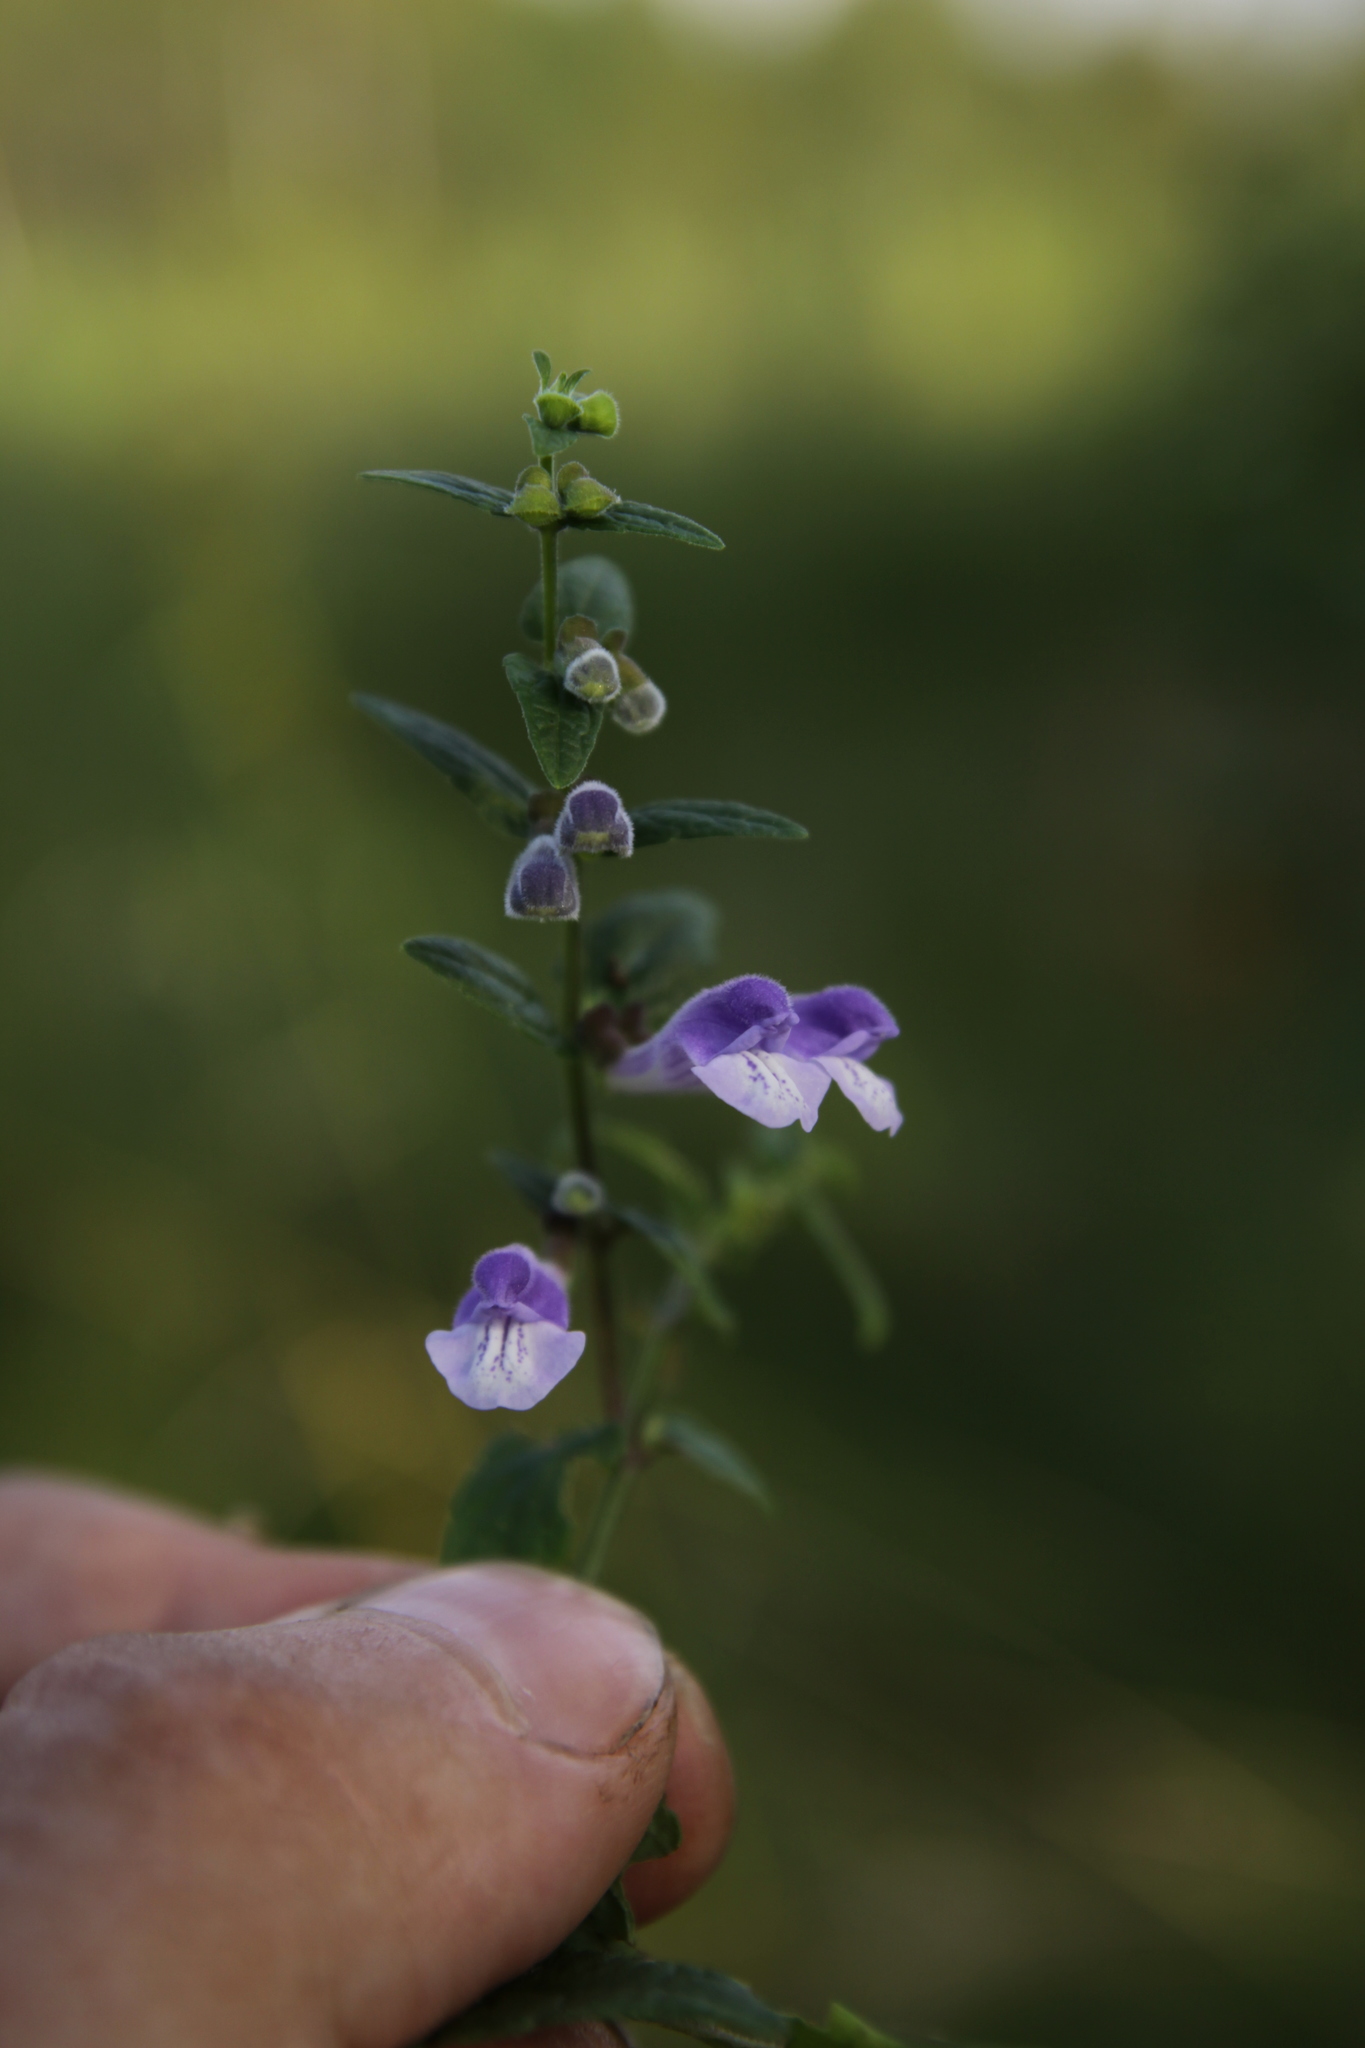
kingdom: Plantae
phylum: Tracheophyta
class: Magnoliopsida
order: Lamiales
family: Lamiaceae
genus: Scutellaria
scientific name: Scutellaria galericulata
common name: Skullcap
